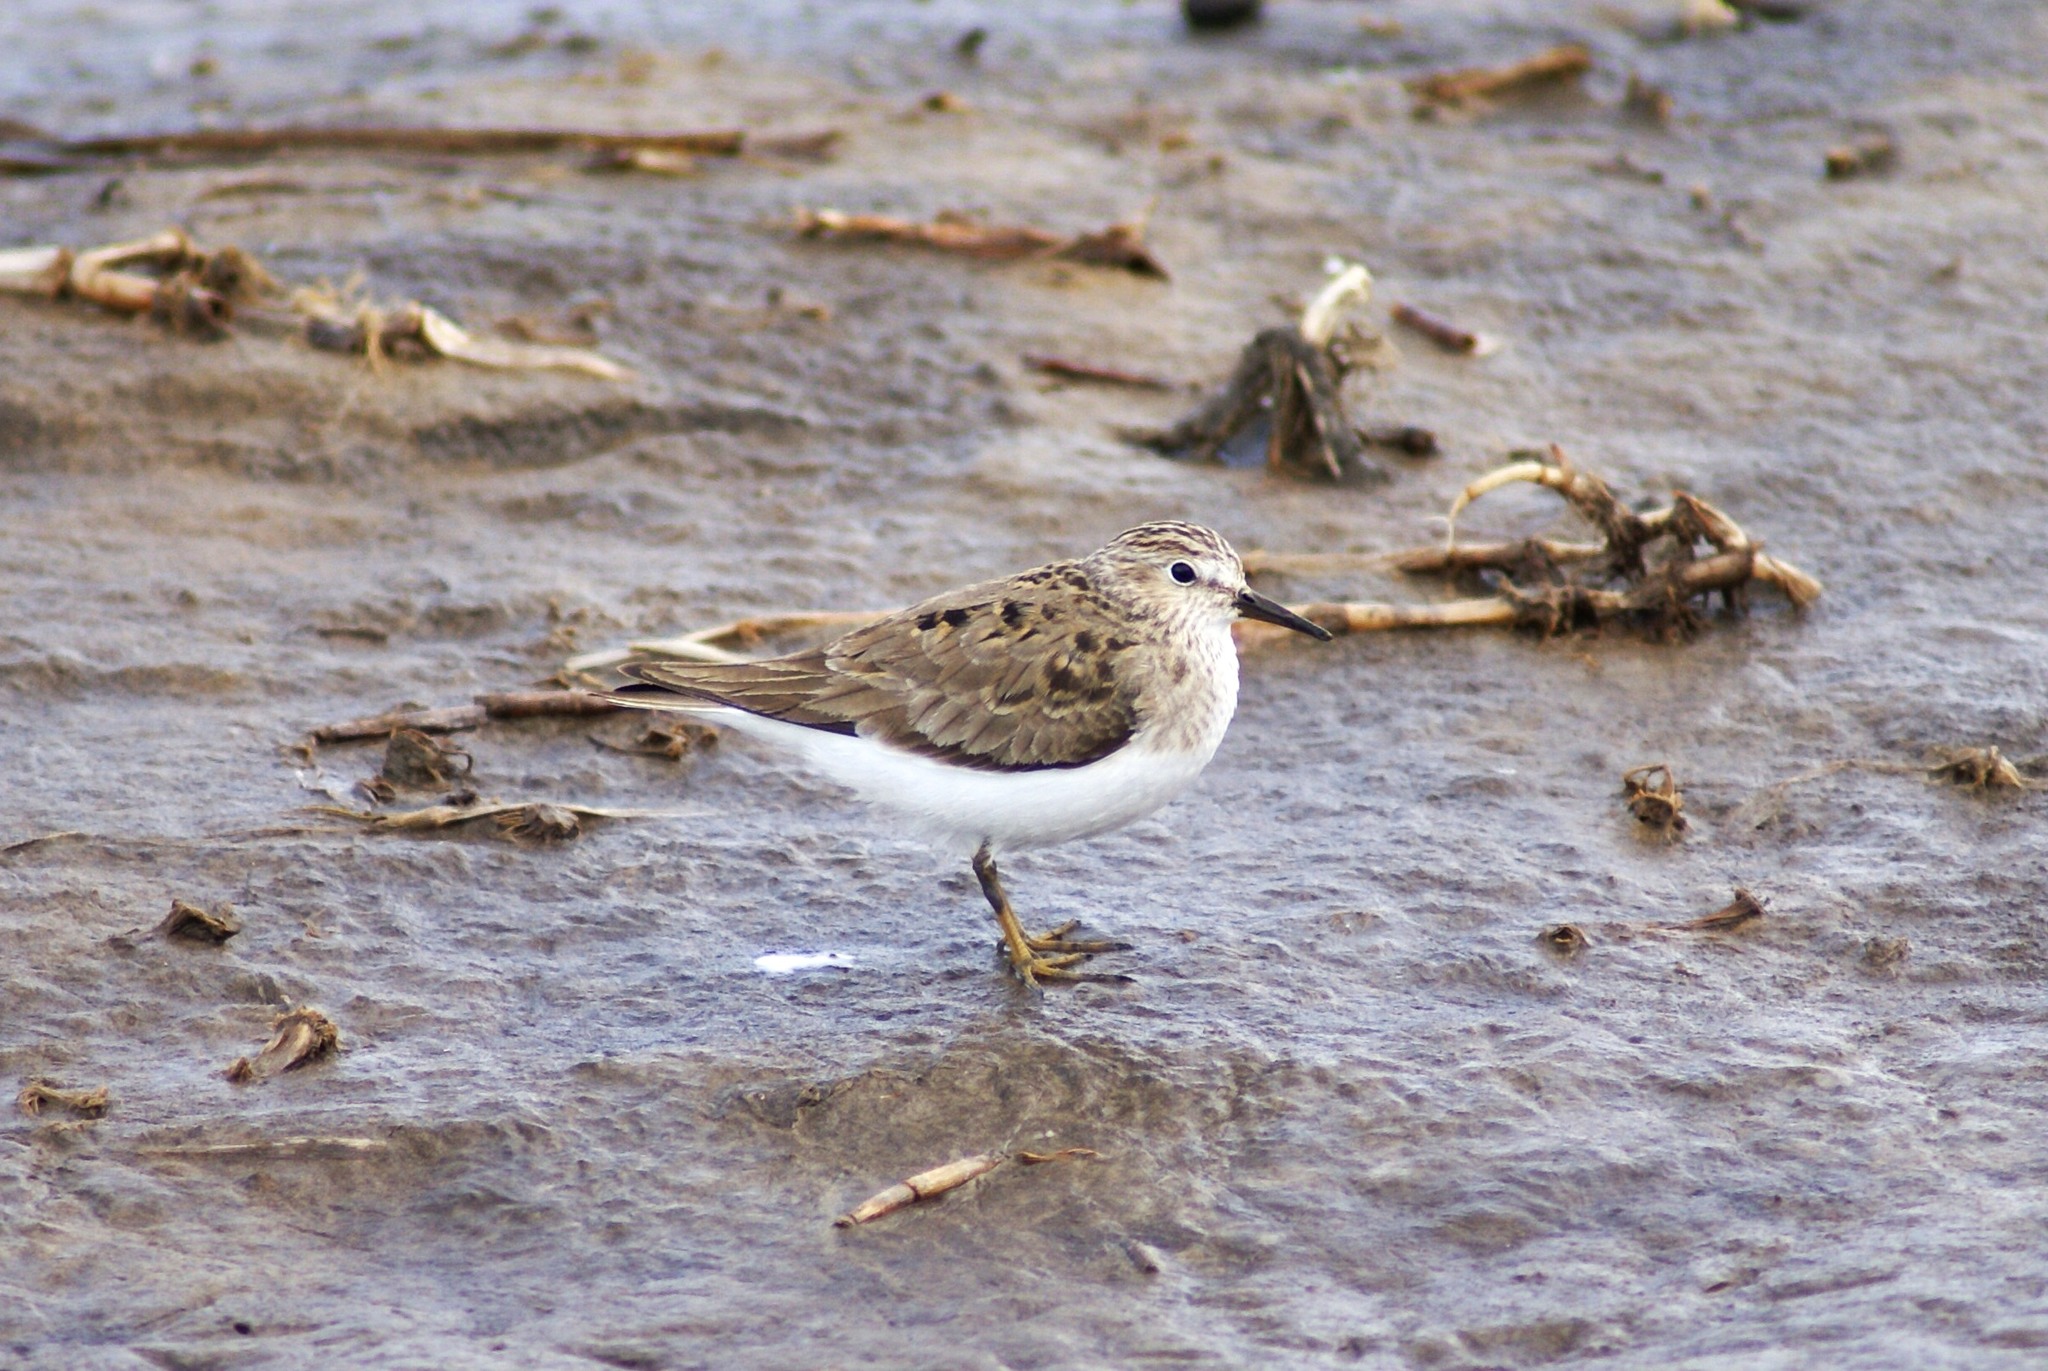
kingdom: Animalia
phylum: Chordata
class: Aves
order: Charadriiformes
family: Scolopacidae
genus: Calidris
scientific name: Calidris temminckii
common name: Temminck's stint
